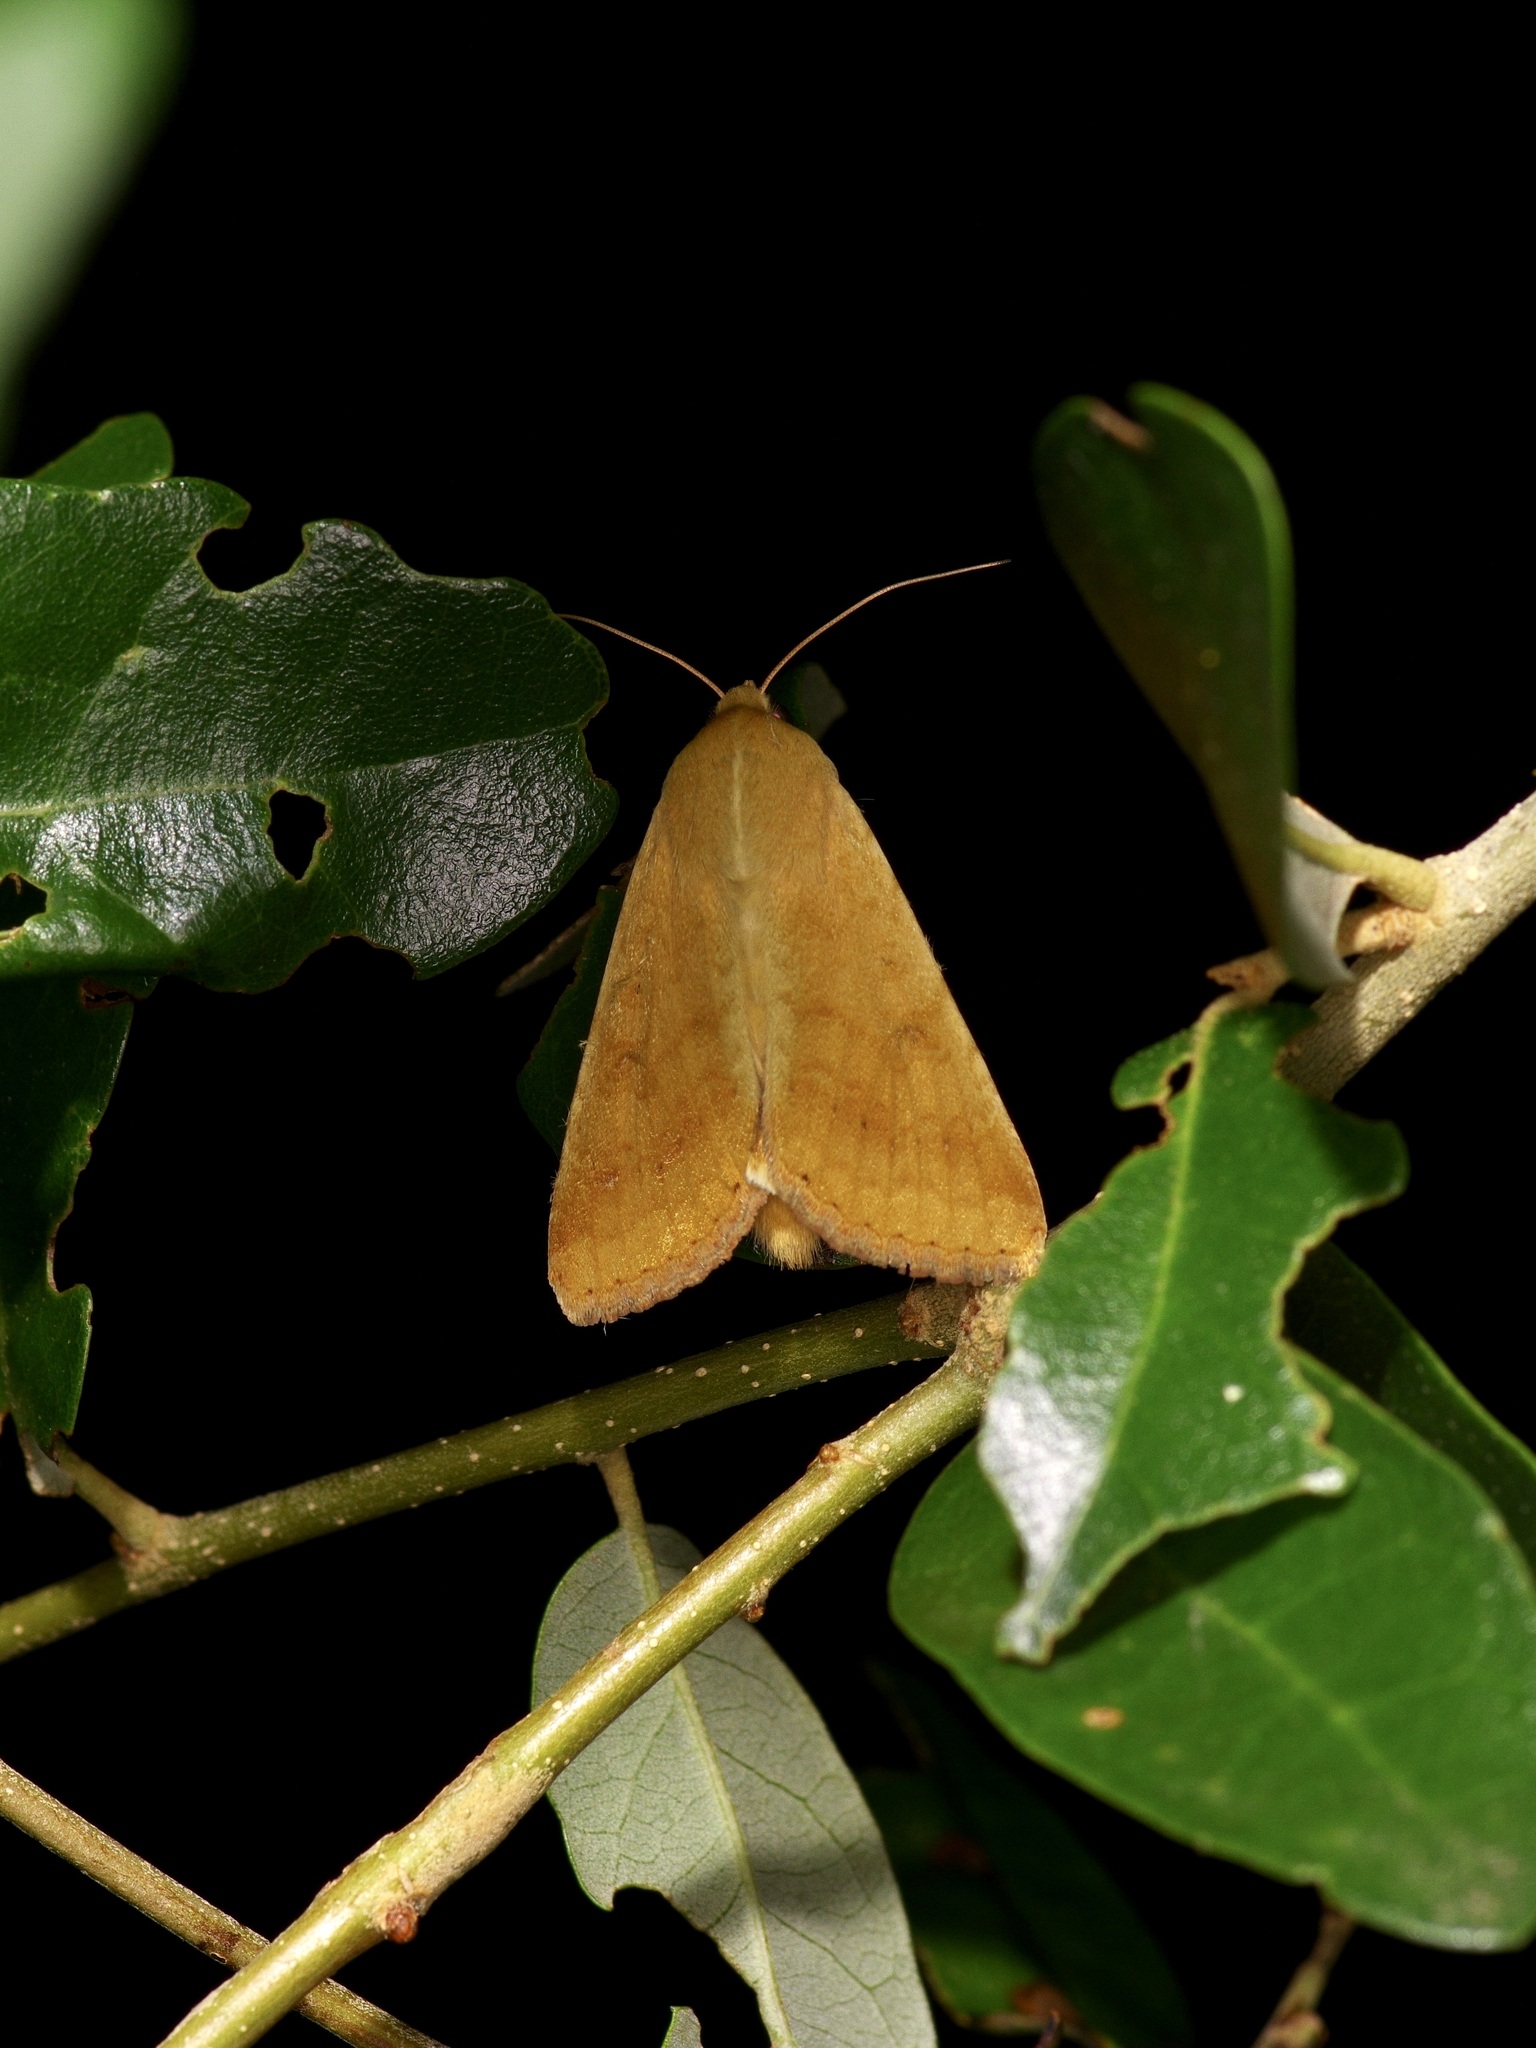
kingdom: Animalia
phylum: Arthropoda
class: Insecta
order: Lepidoptera
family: Noctuidae
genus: Helicoverpa
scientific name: Helicoverpa zea
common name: Bollworm
